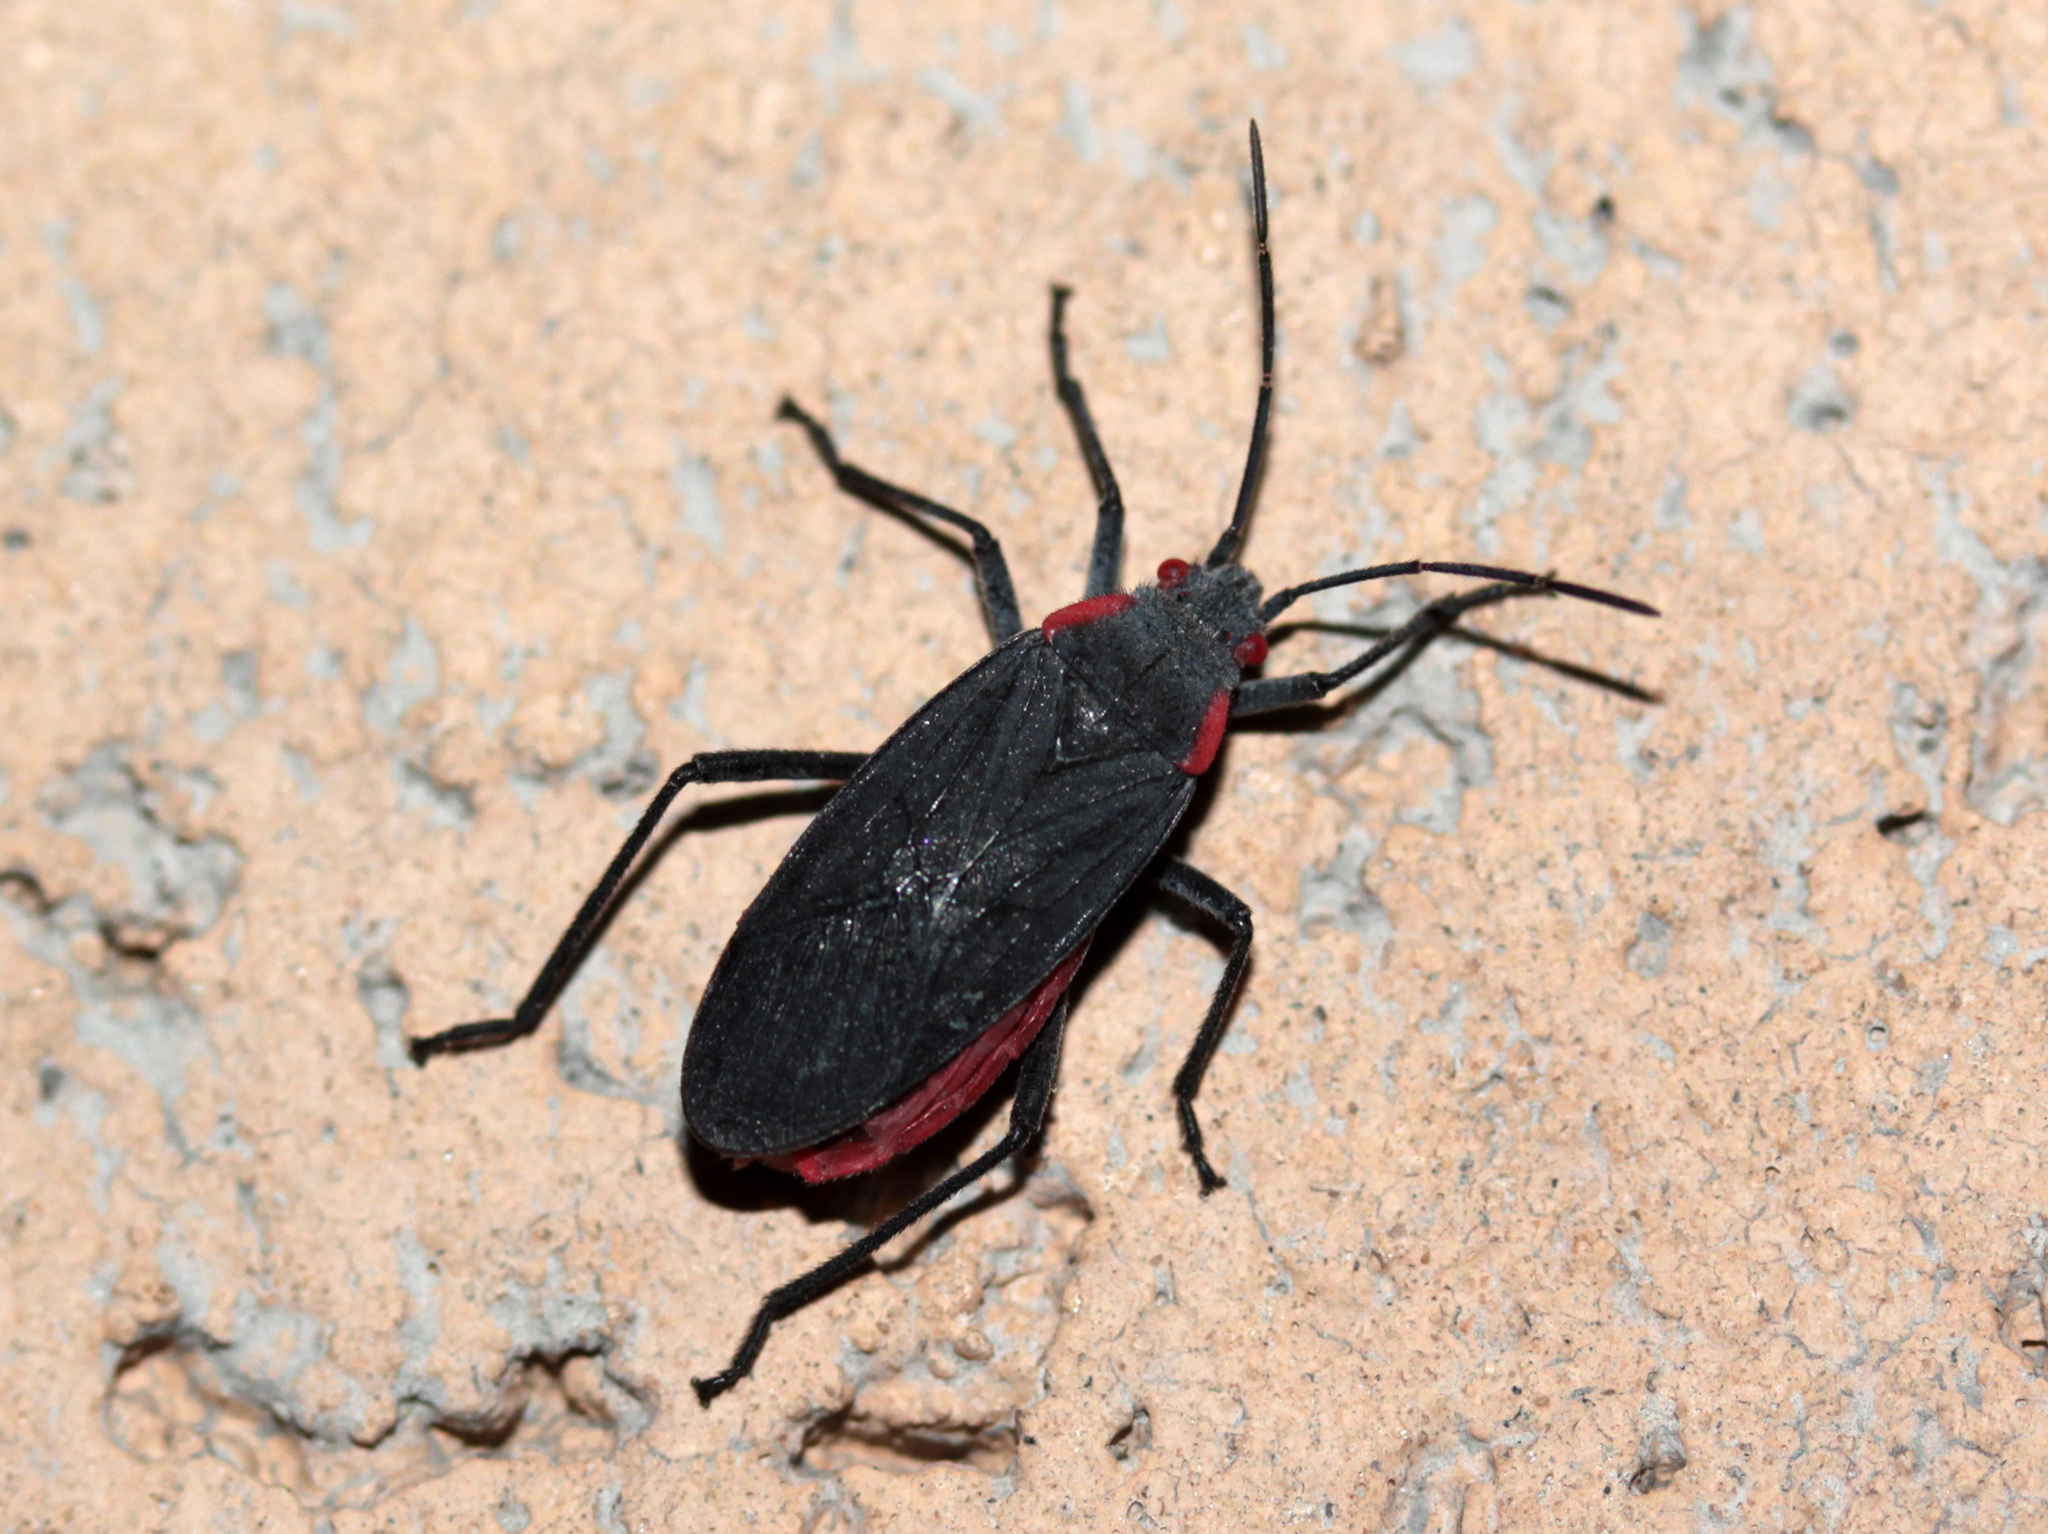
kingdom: Animalia
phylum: Arthropoda
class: Insecta
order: Hemiptera
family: Rhopalidae
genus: Jadera
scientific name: Jadera haematoloma
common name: Red-shouldered bug
